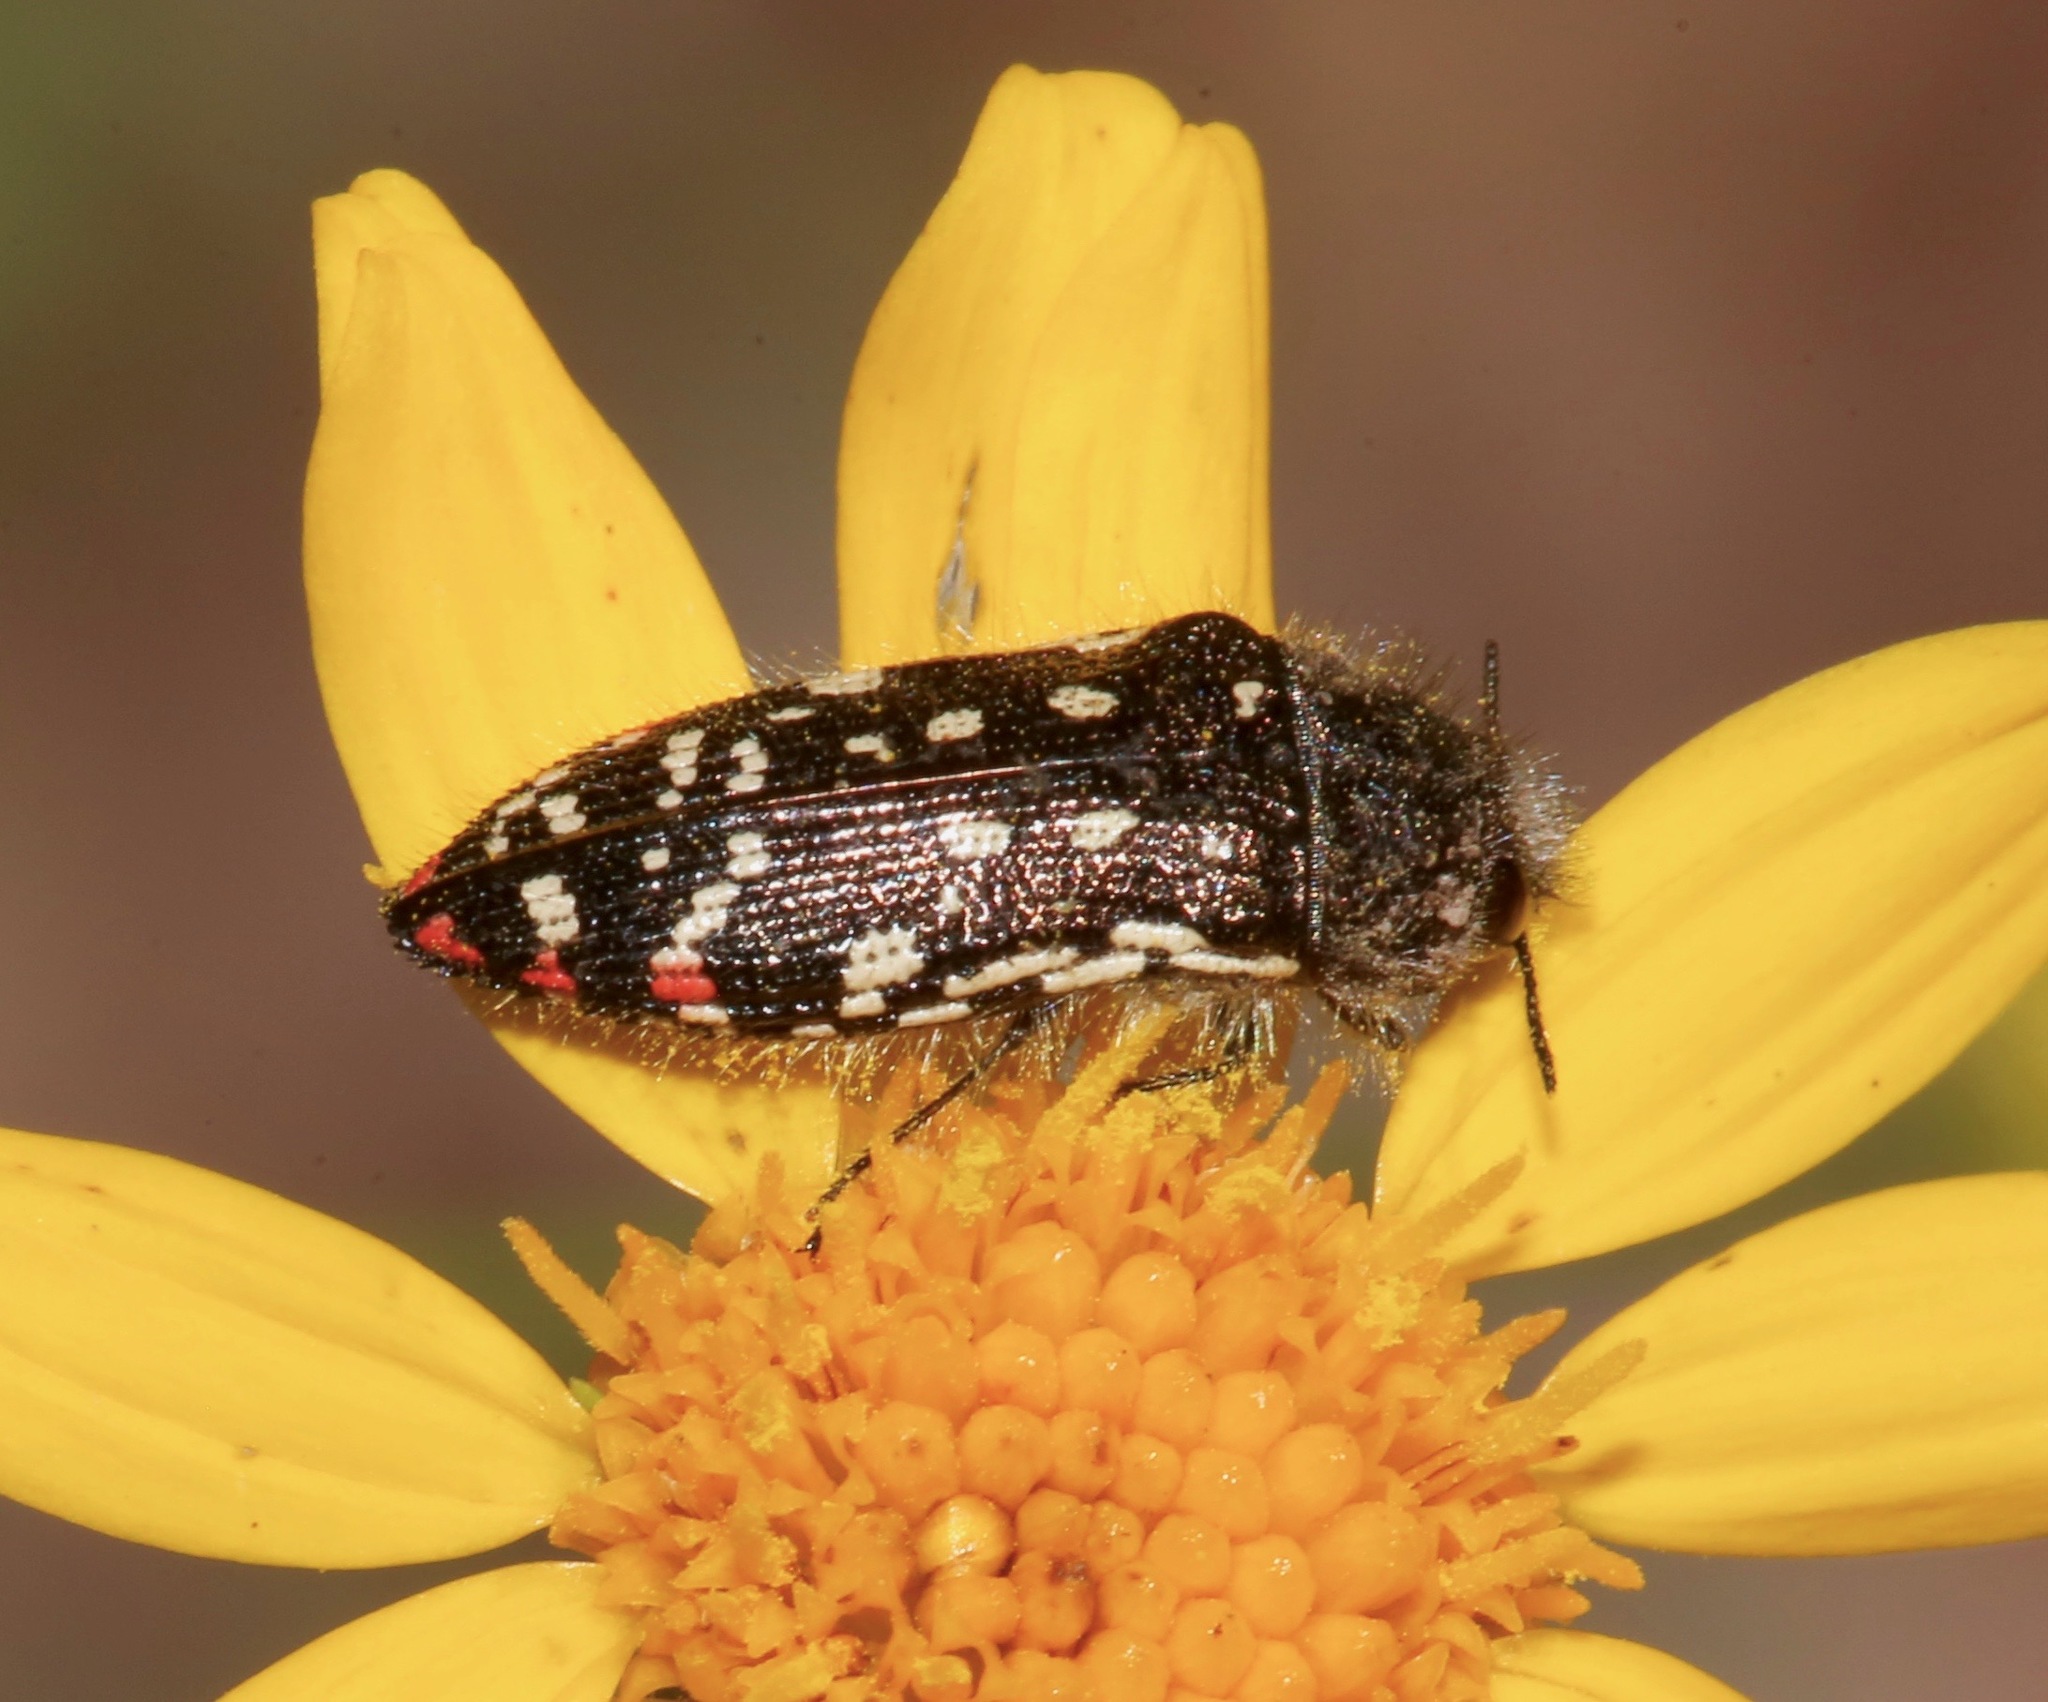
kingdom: Animalia
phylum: Arthropoda
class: Insecta
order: Coleoptera
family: Buprestidae
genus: Acmaeodera
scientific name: Acmaeodera rubronotata
